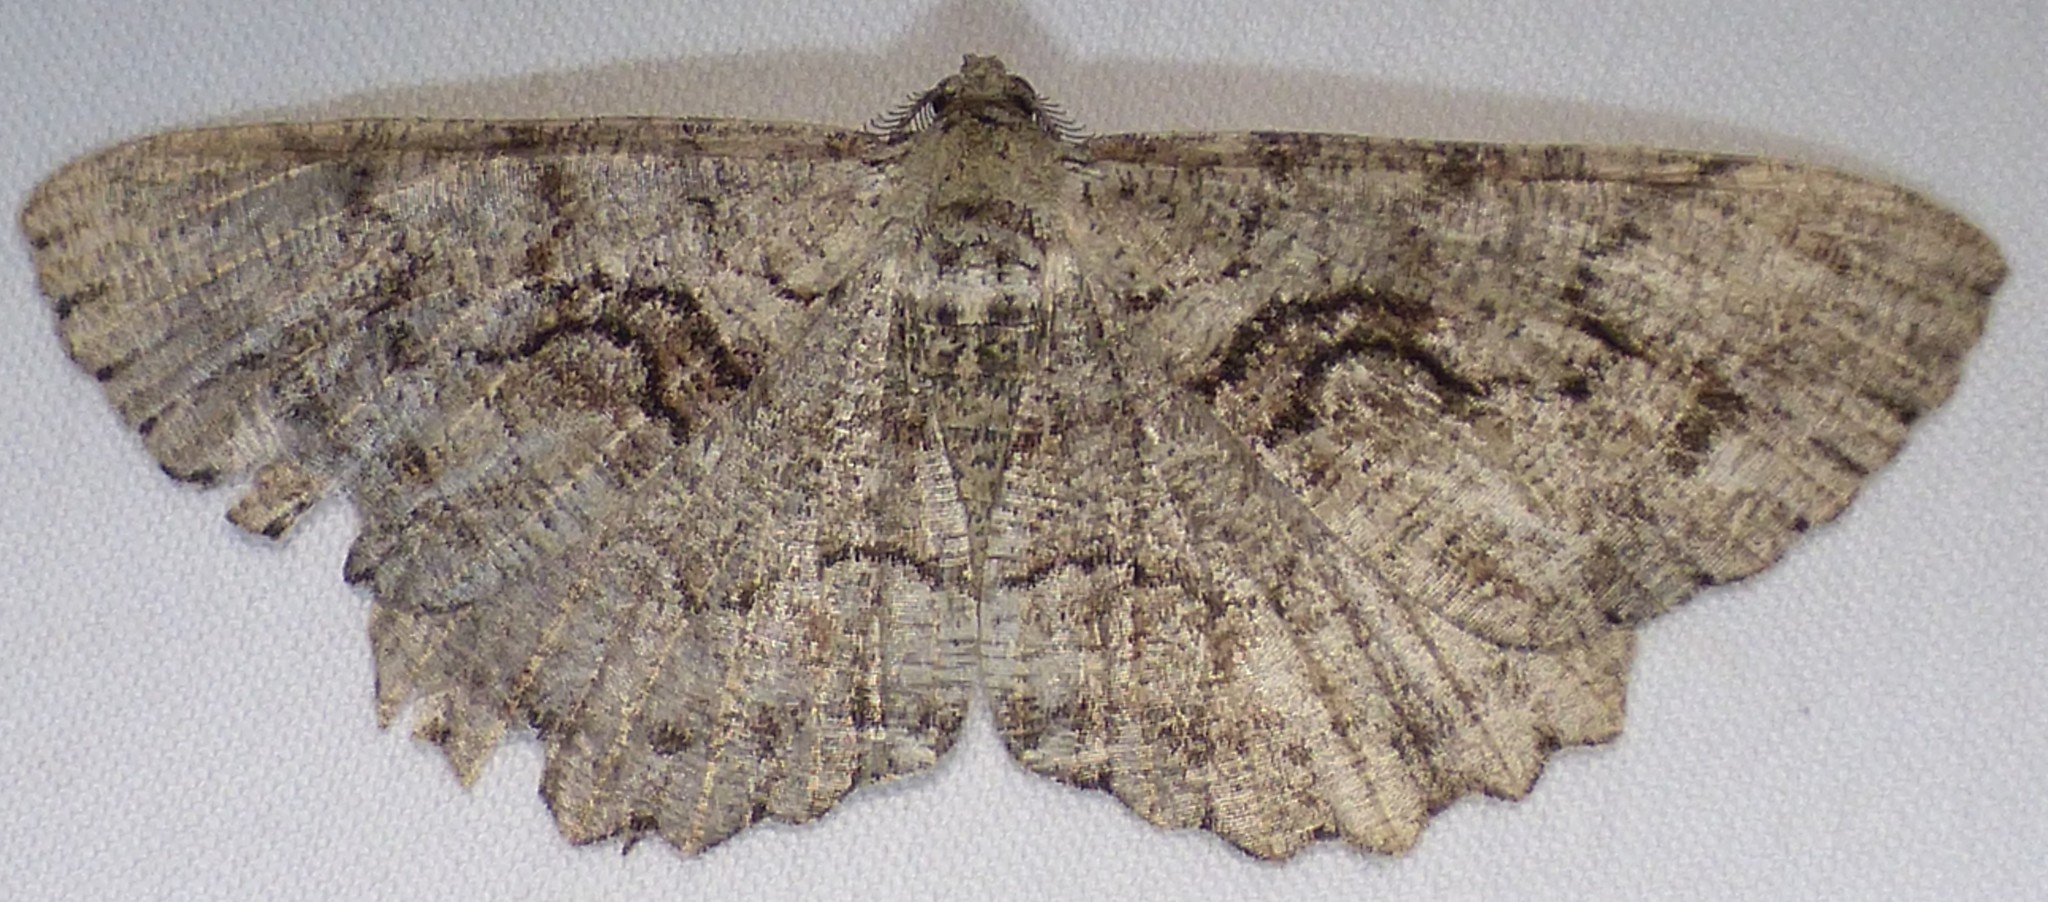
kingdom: Animalia
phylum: Arthropoda
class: Insecta
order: Lepidoptera
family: Geometridae
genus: Cymatophora
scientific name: Cymatophora approximaria
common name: Giant gray moth
